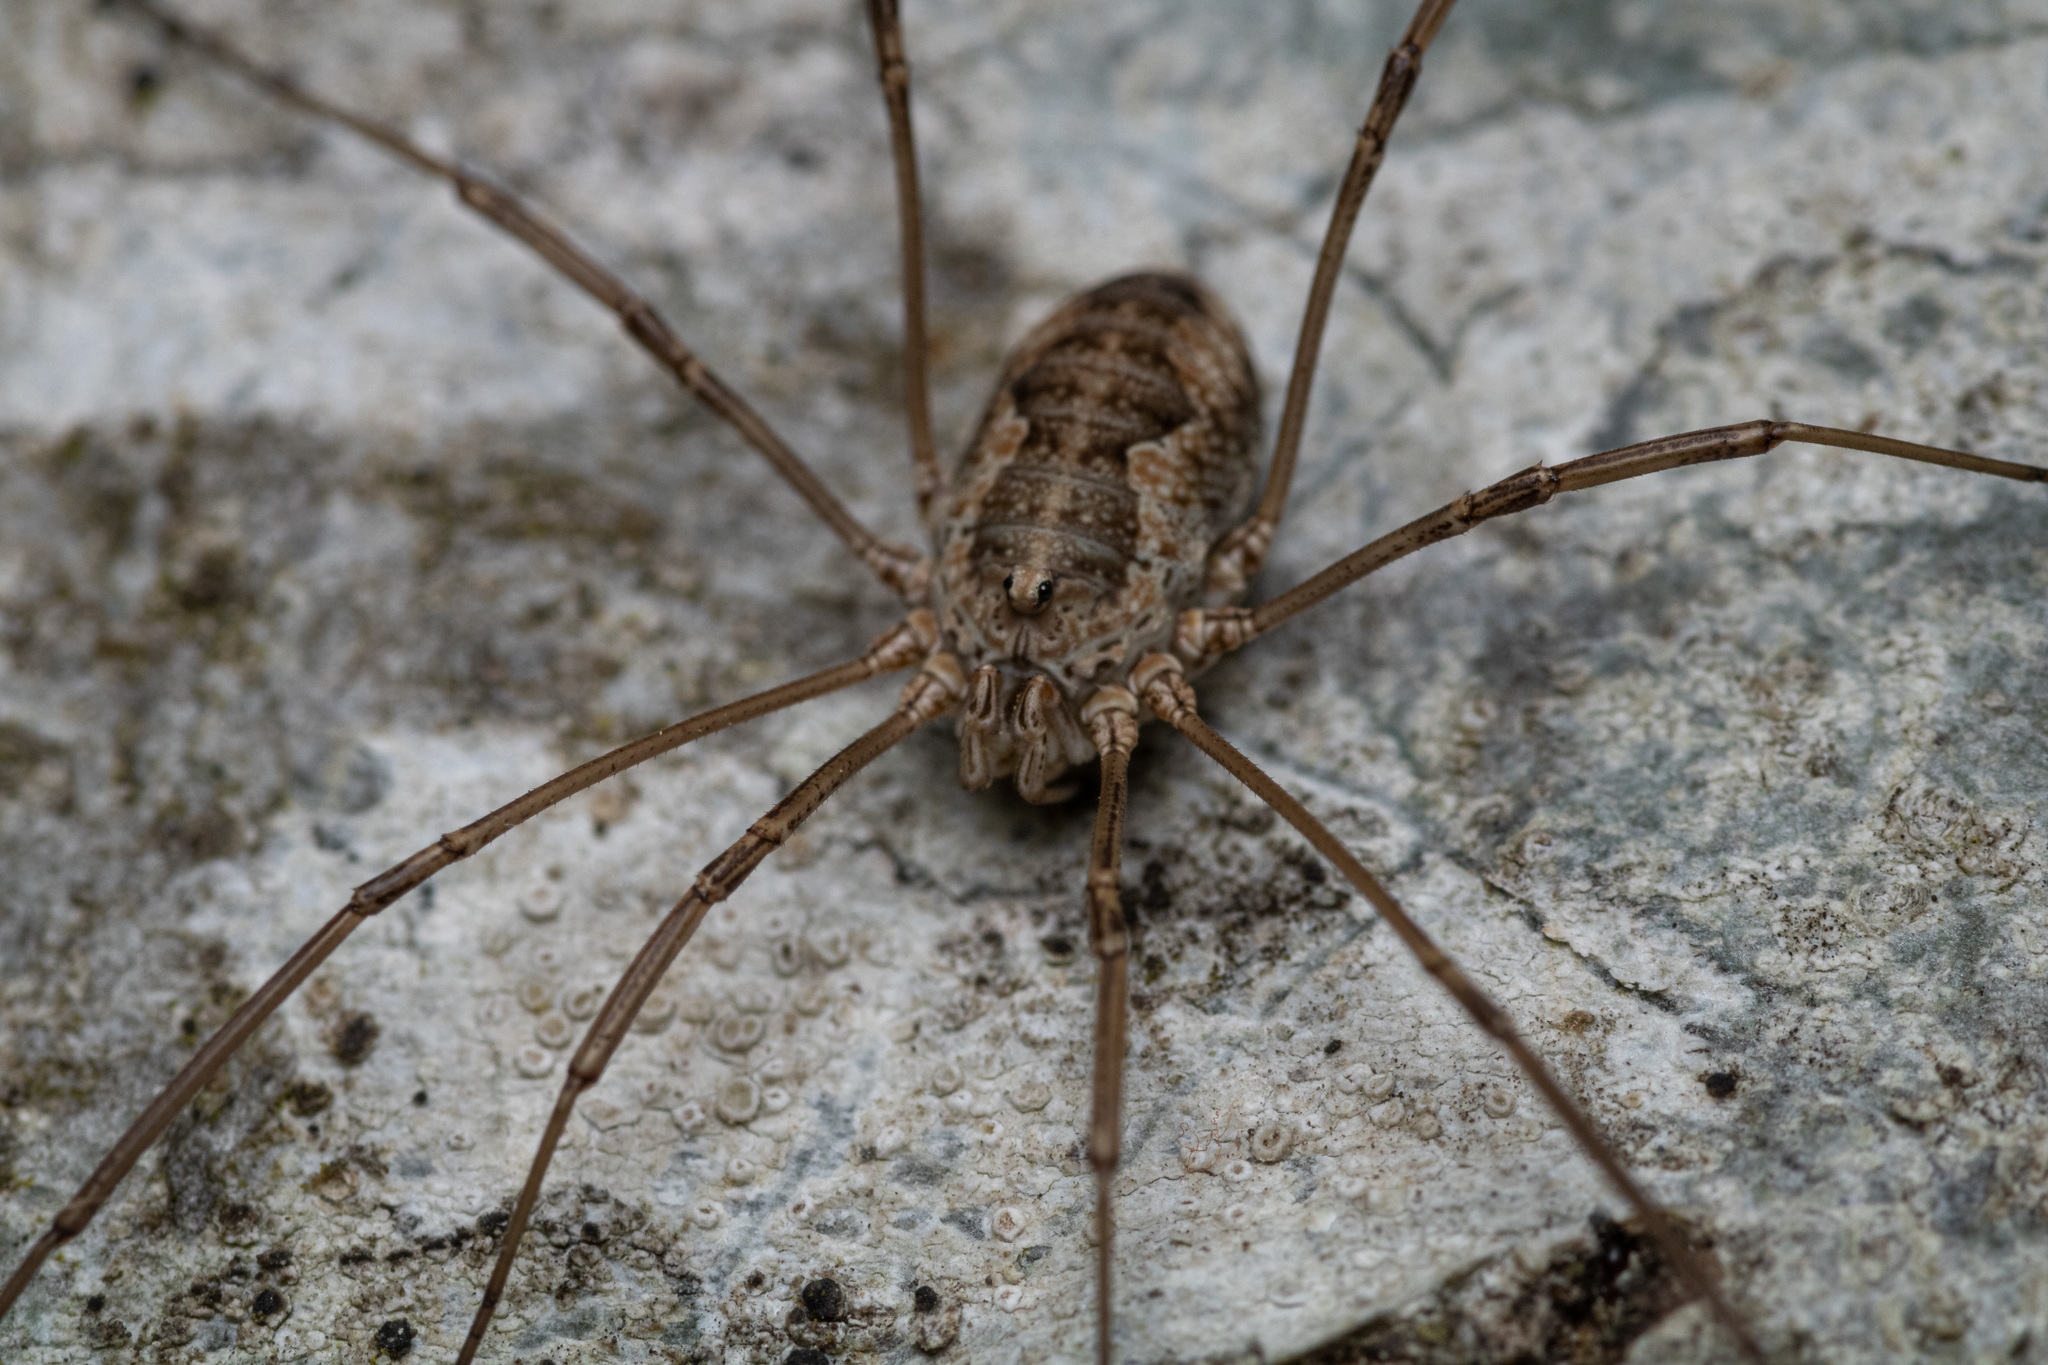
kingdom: Animalia
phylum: Arthropoda
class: Arachnida
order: Opiliones
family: Phalangiidae
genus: Phalangium
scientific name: Phalangium opilio
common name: Daddy longleg
